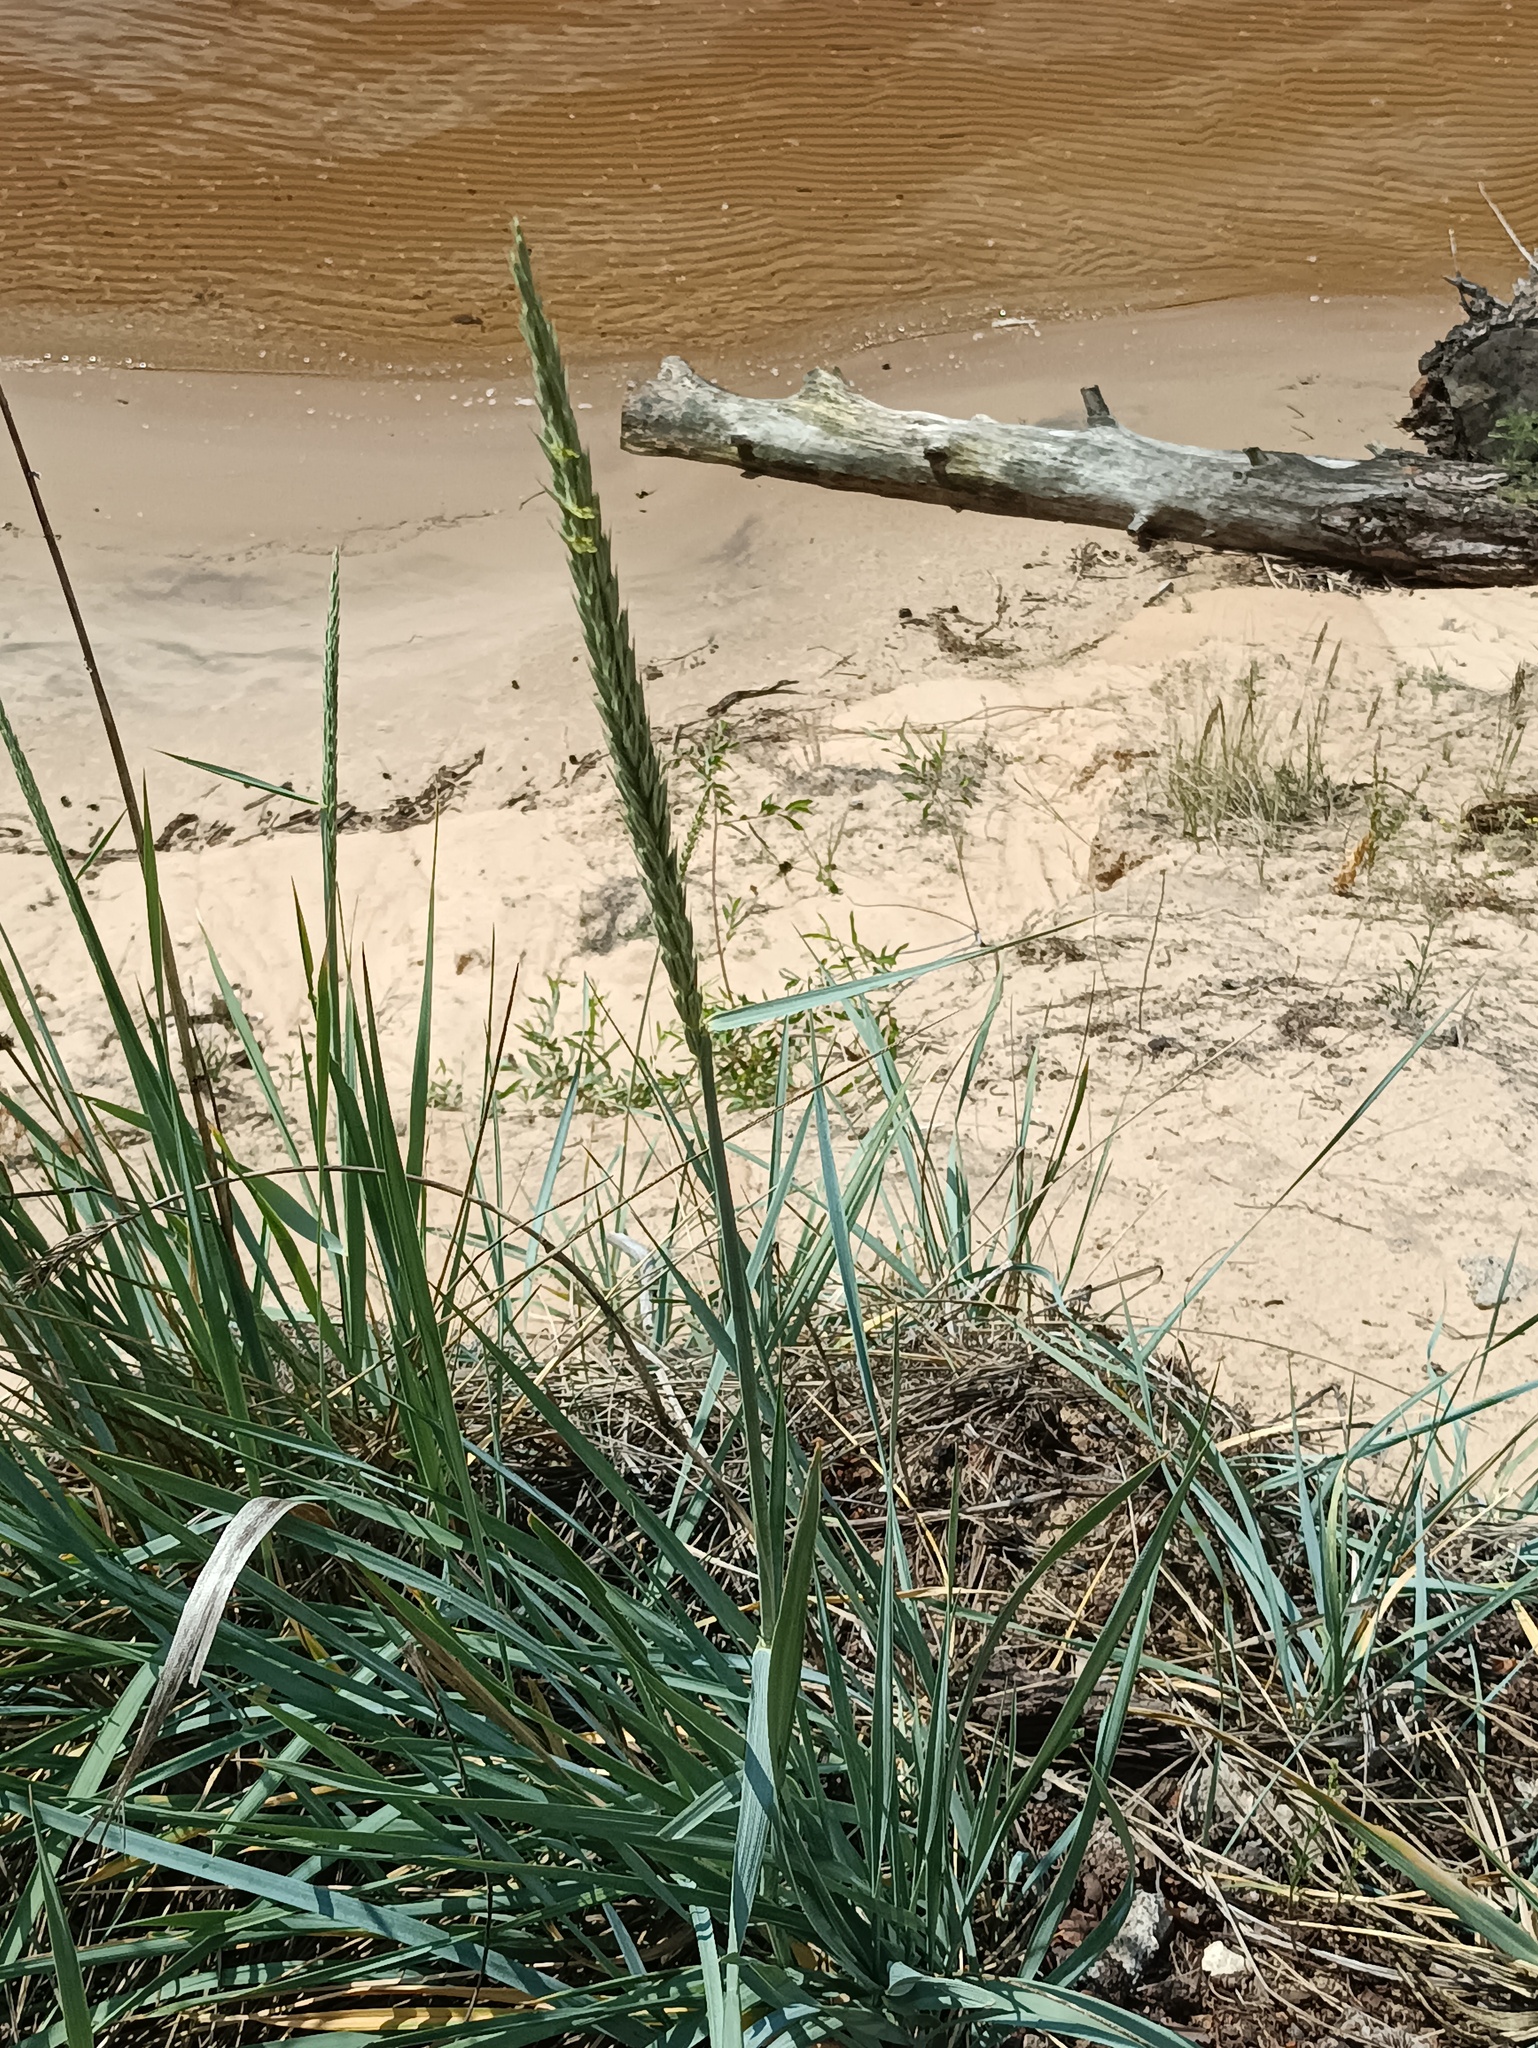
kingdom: Plantae
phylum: Tracheophyta
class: Liliopsida
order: Poales
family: Poaceae
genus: Leymus
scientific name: Leymus racemosus
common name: Mammoth wildrye
